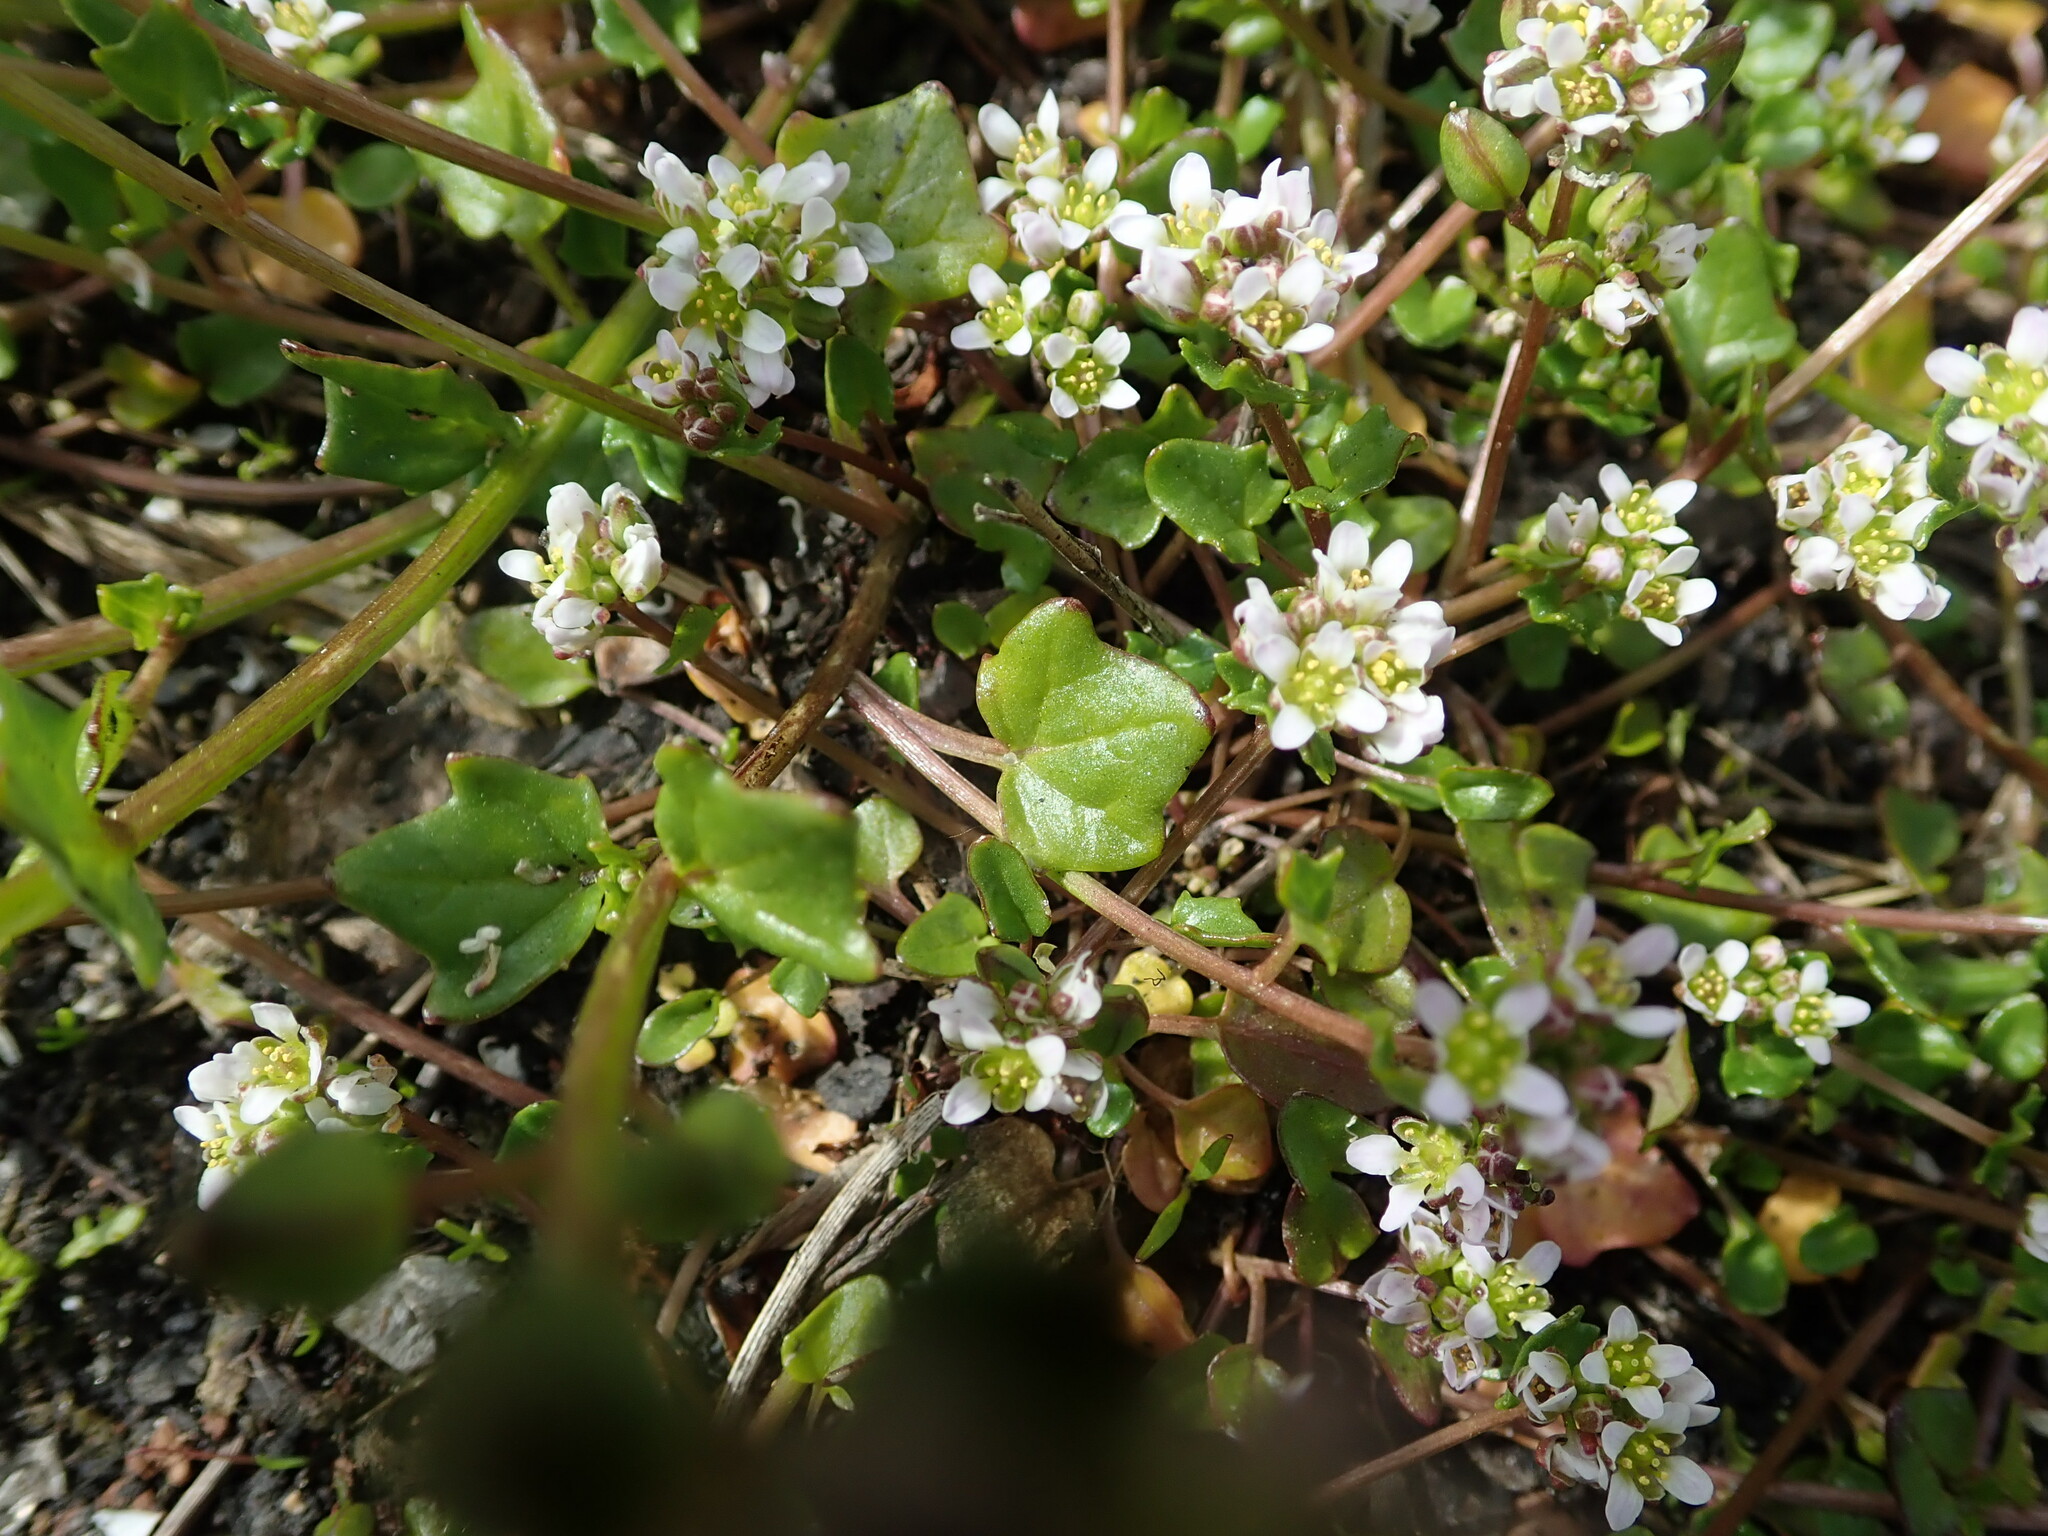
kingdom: Plantae
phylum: Tracheophyta
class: Magnoliopsida
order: Brassicales
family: Brassicaceae
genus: Cochlearia
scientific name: Cochlearia danica
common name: Early scurvygrass
